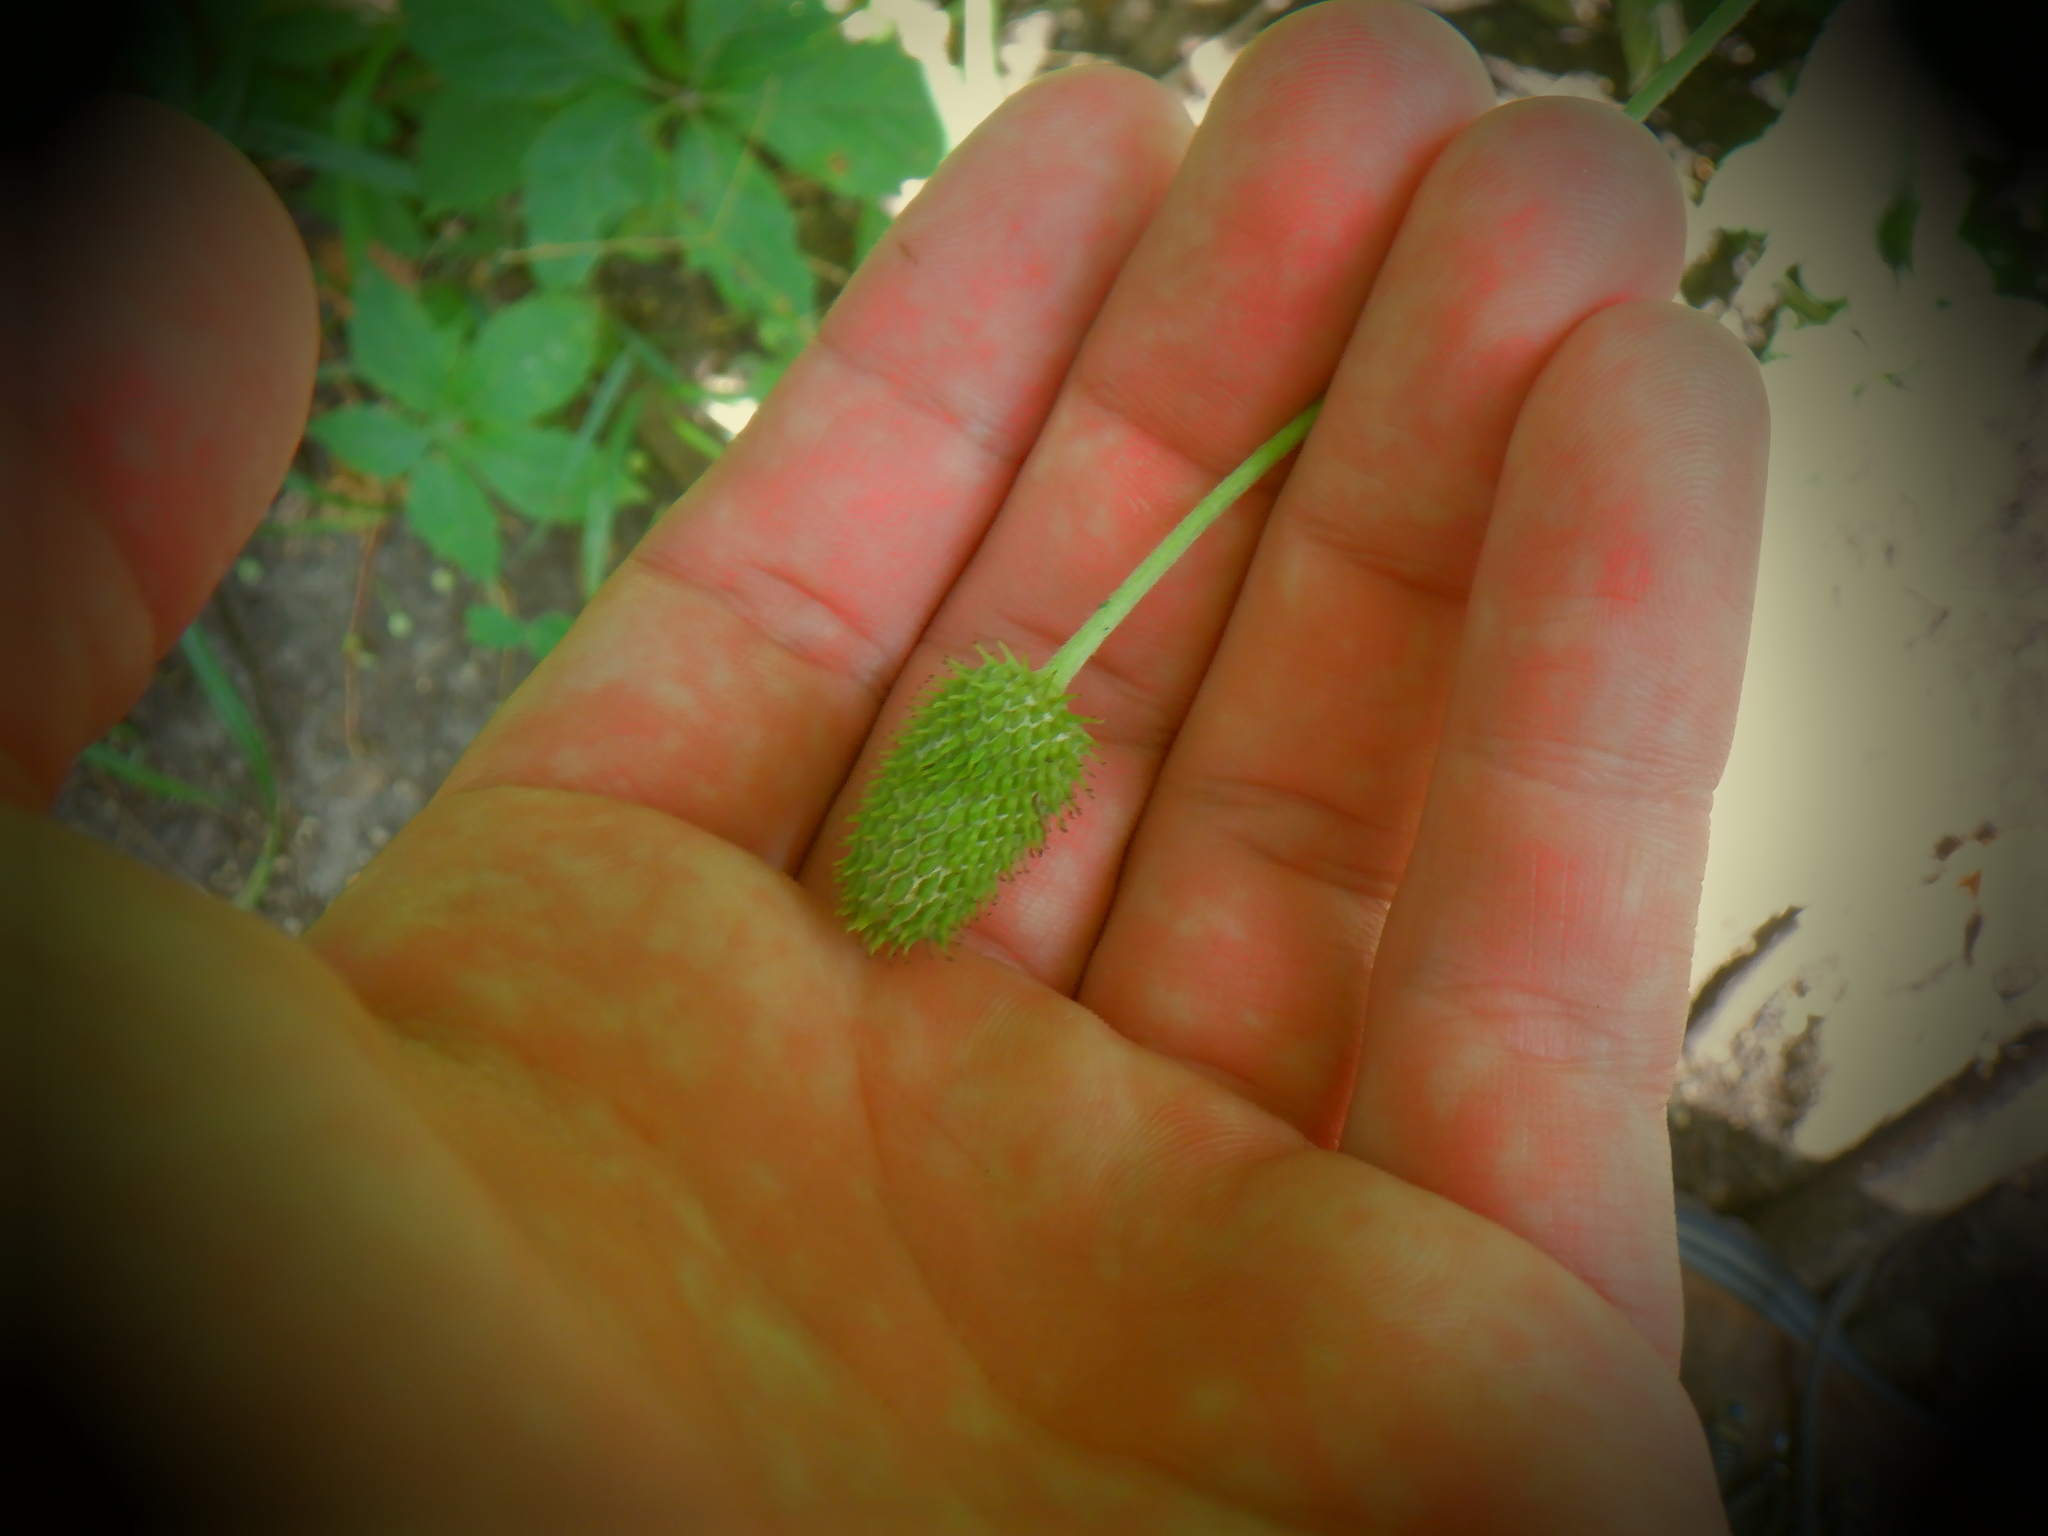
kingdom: Plantae
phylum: Tracheophyta
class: Magnoliopsida
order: Ranunculales
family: Ranunculaceae
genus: Anemone
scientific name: Anemone virginiana
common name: Tall anemone
